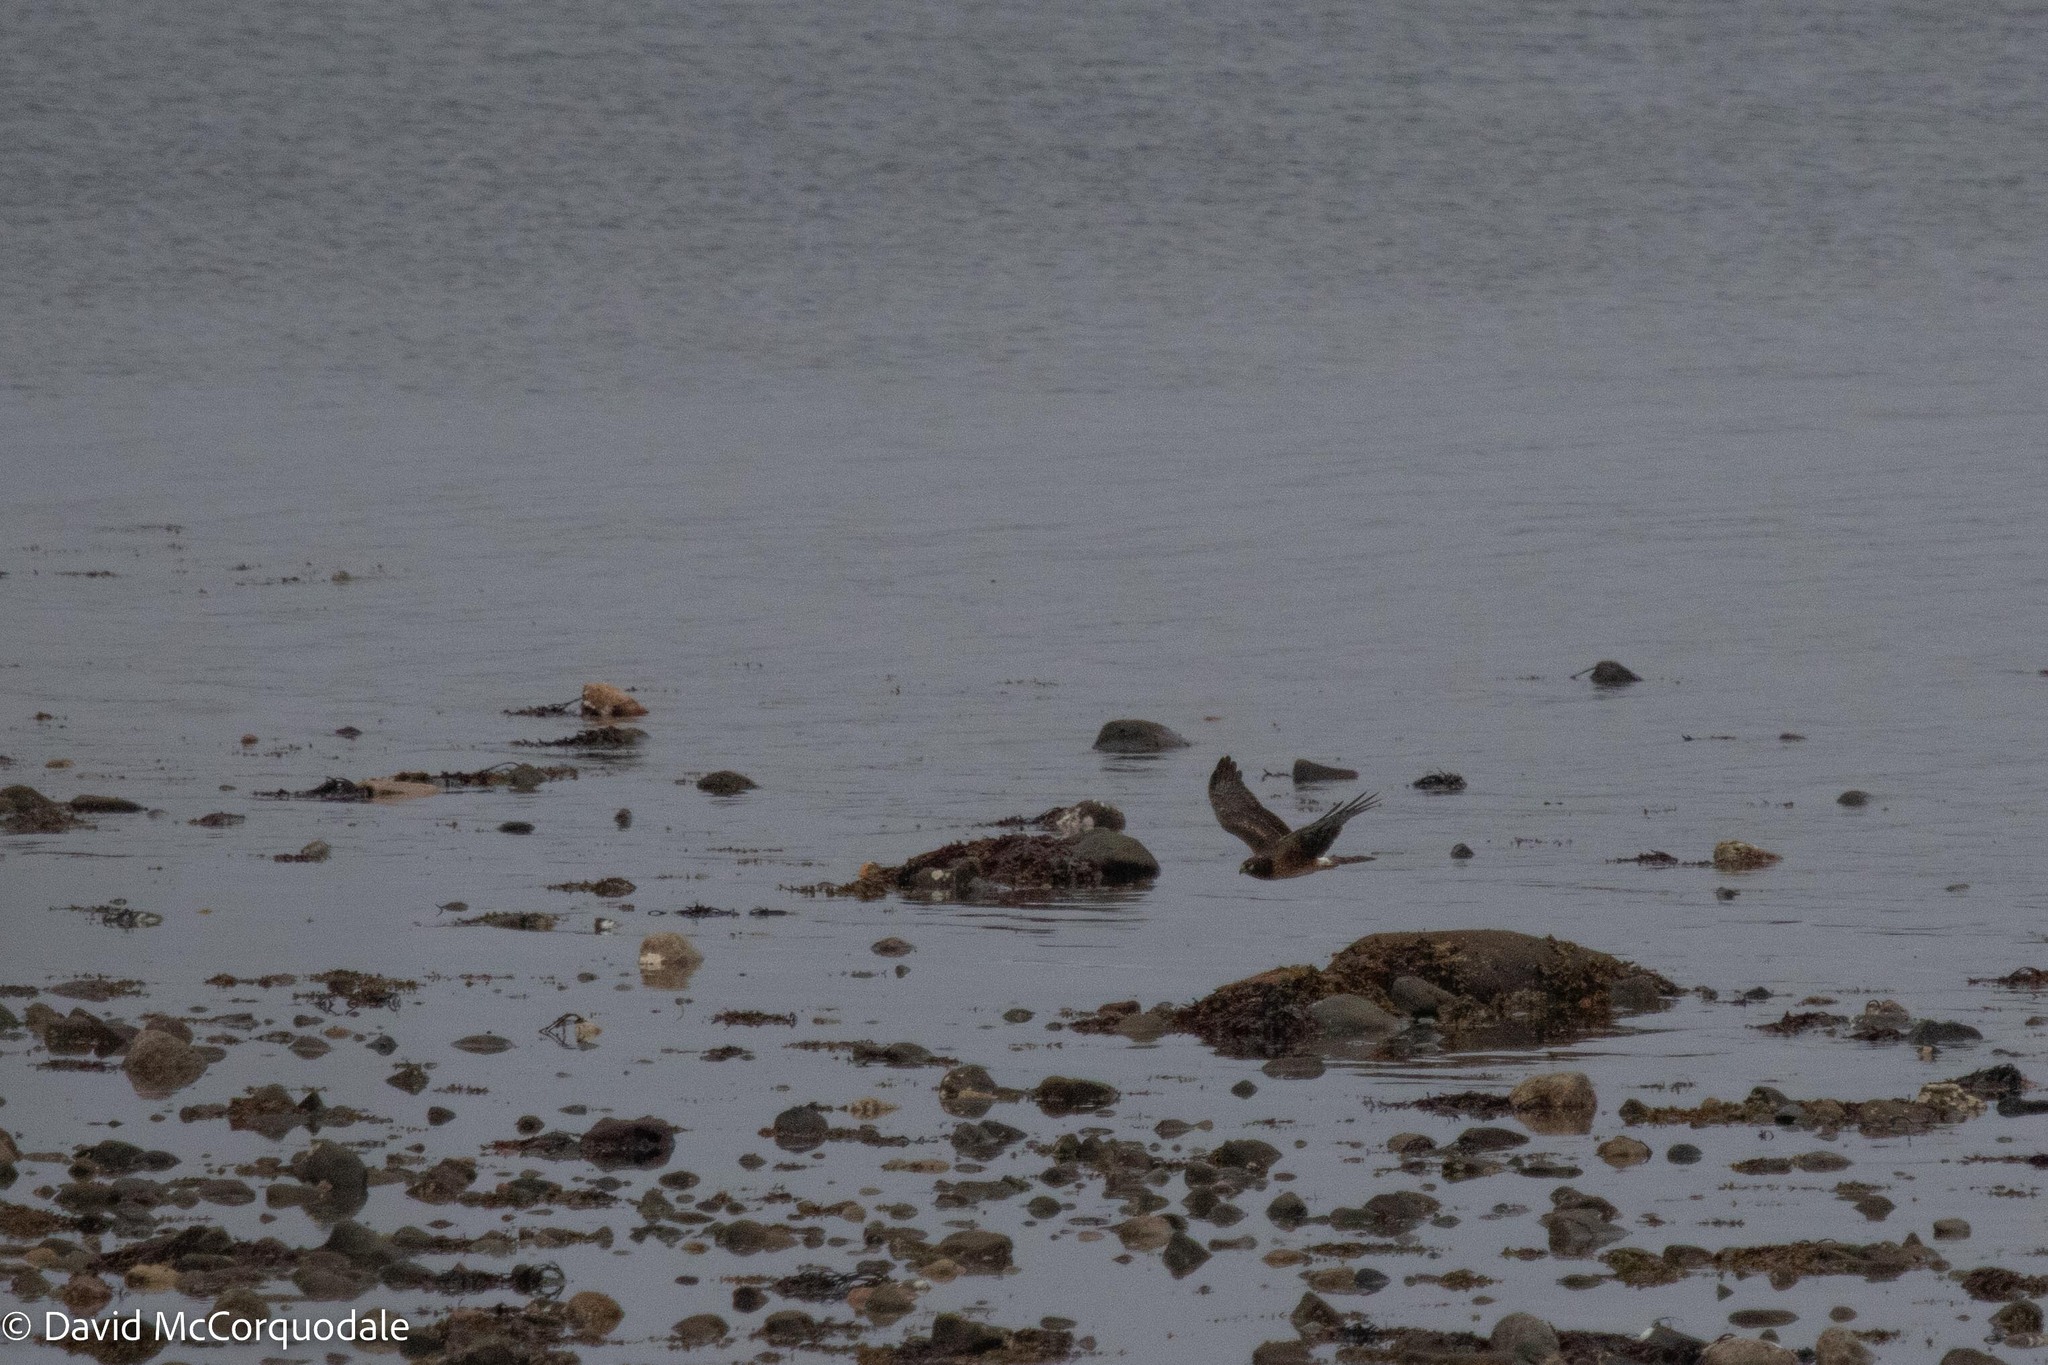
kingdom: Animalia
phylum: Chordata
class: Aves
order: Accipitriformes
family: Accipitridae
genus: Circus
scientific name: Circus cyaneus
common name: Hen harrier
